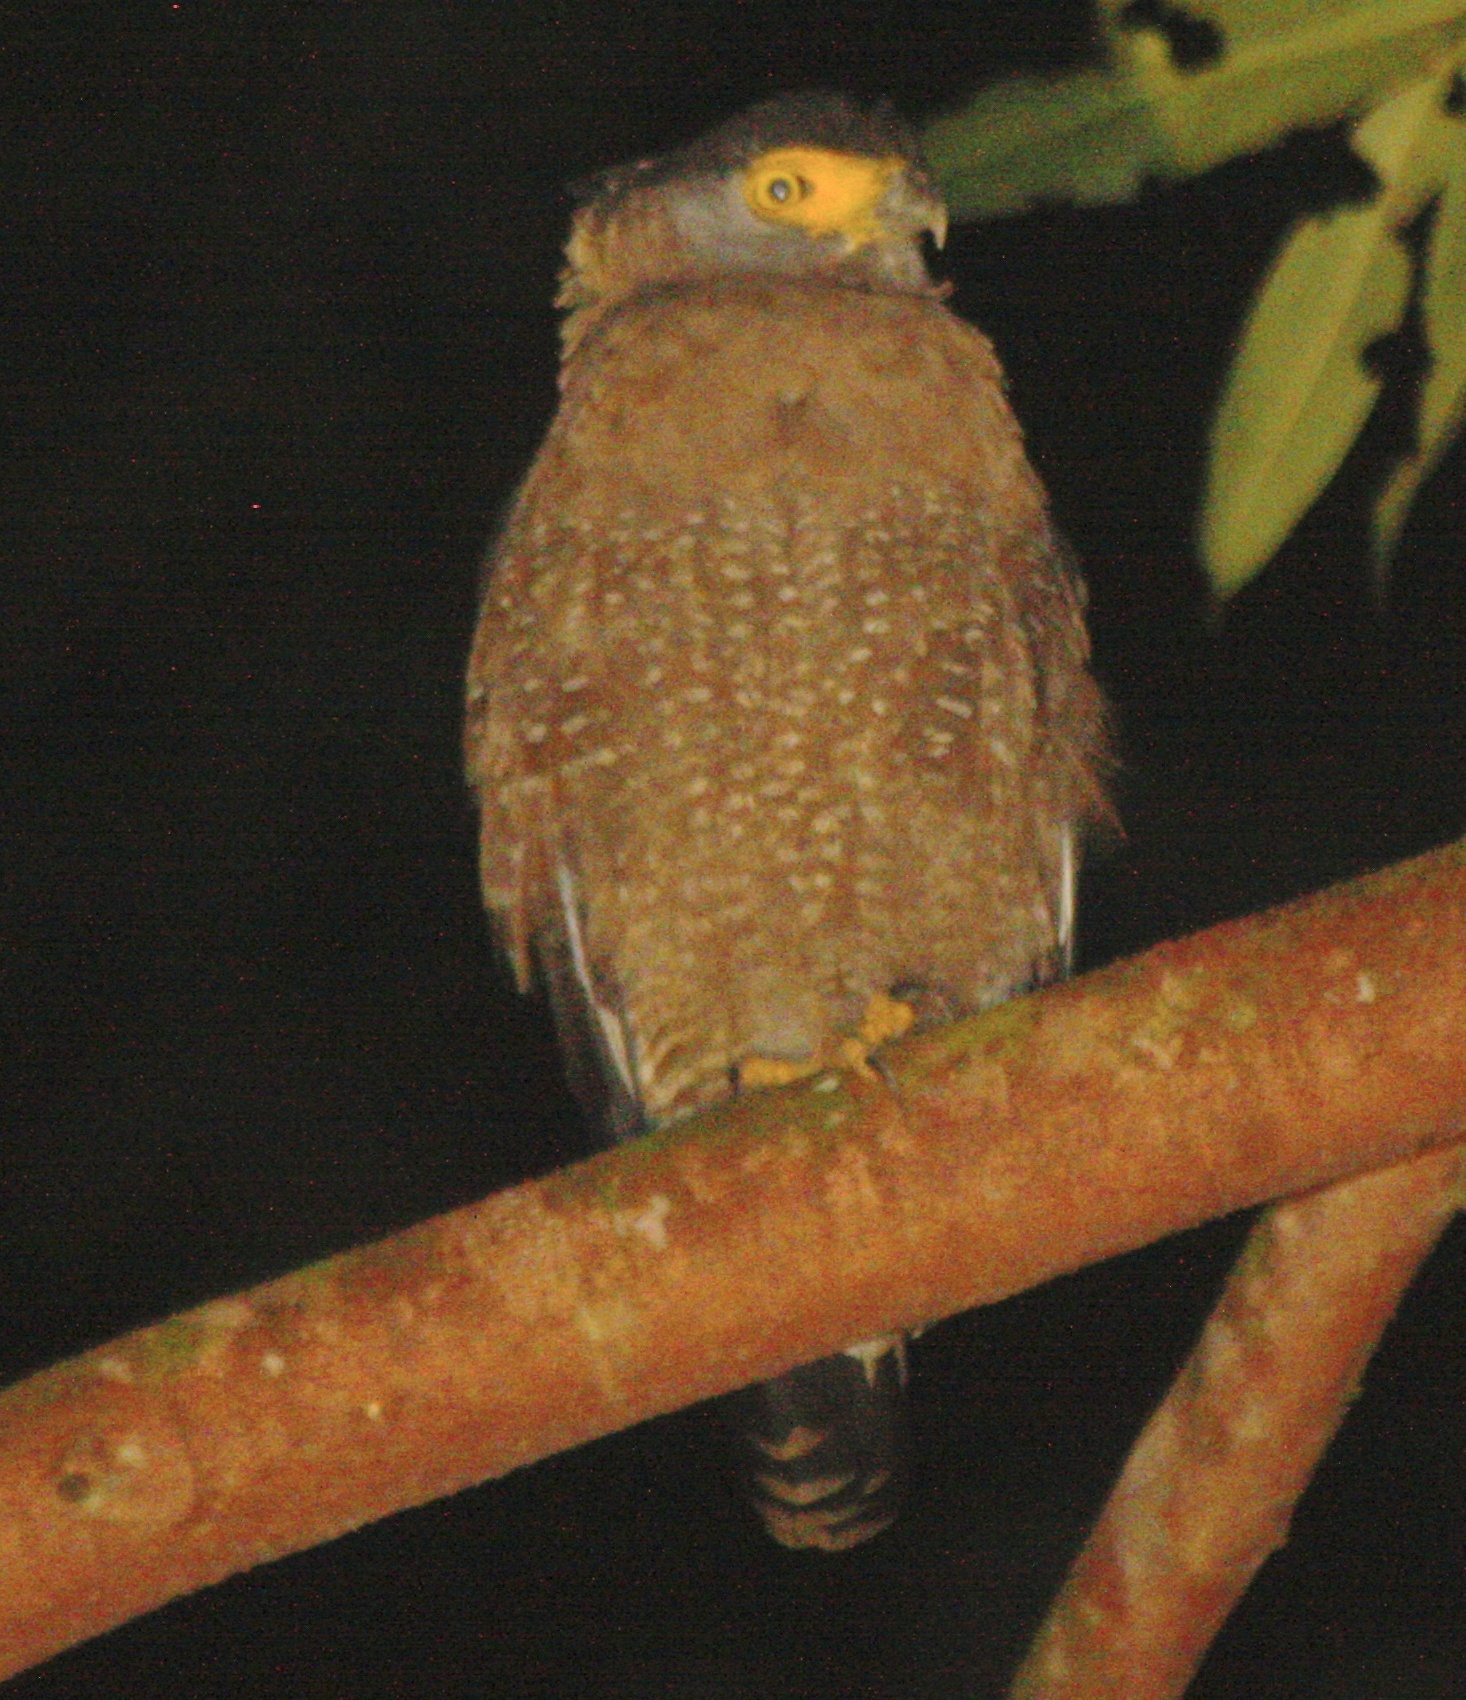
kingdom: Animalia
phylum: Chordata
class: Aves
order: Accipitriformes
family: Accipitridae
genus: Spilornis
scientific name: Spilornis cheela
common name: Crested serpent eagle
